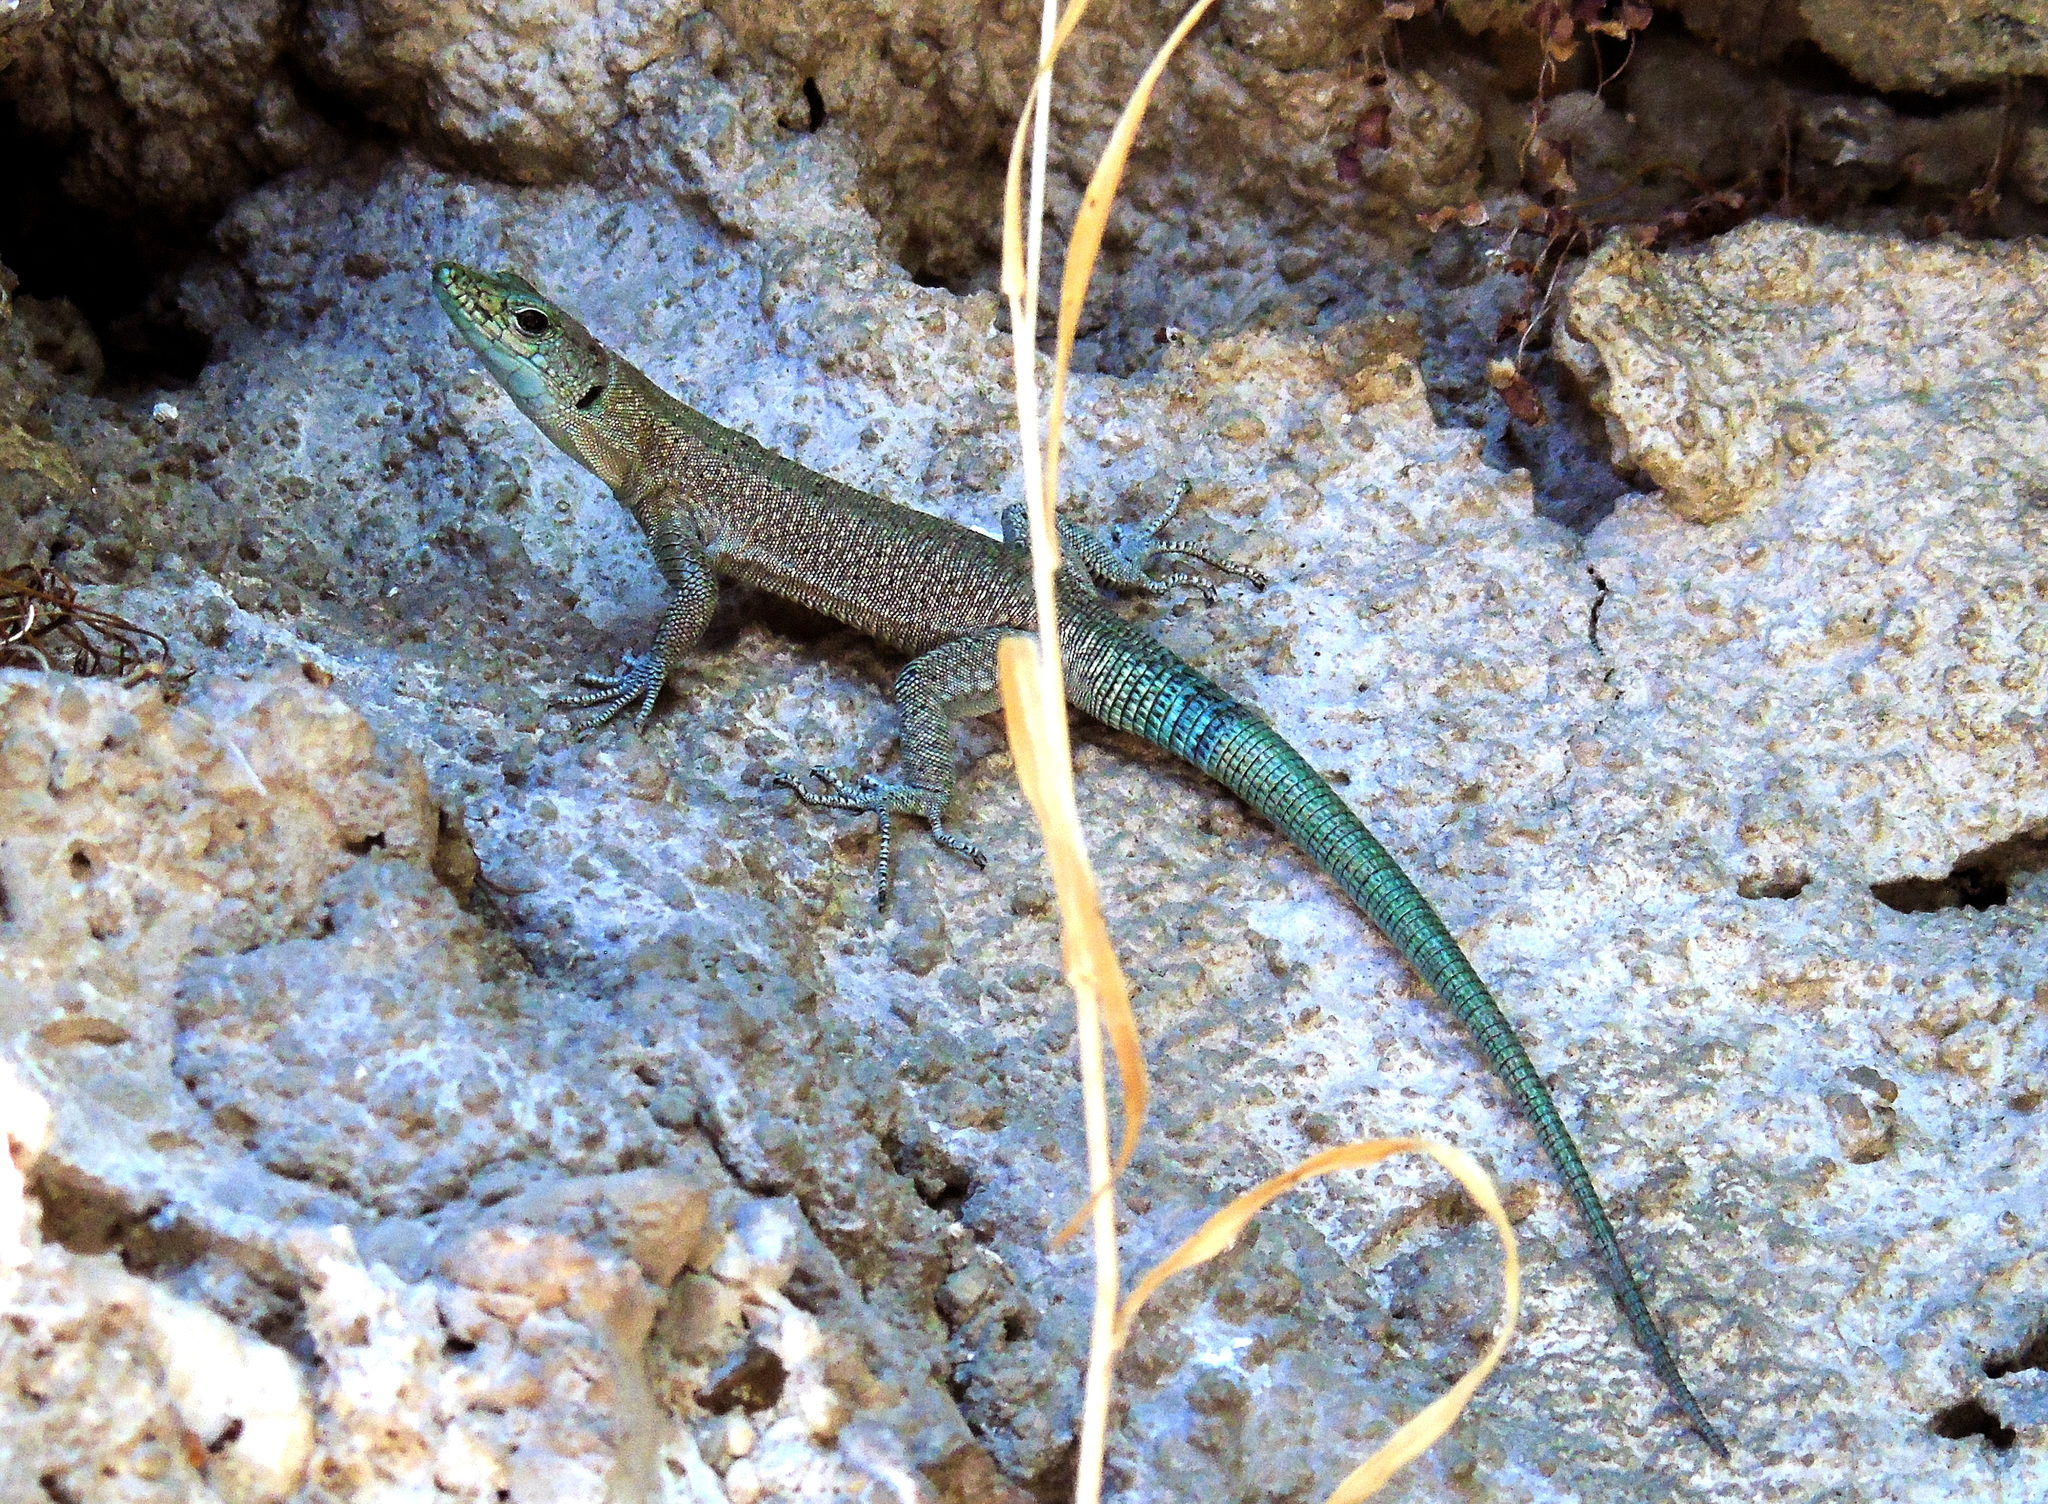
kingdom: Animalia
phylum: Chordata
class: Squamata
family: Lacertidae
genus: Dalmatolacerta
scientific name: Dalmatolacerta oxycephala
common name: Sharp-snouted rock lizard
